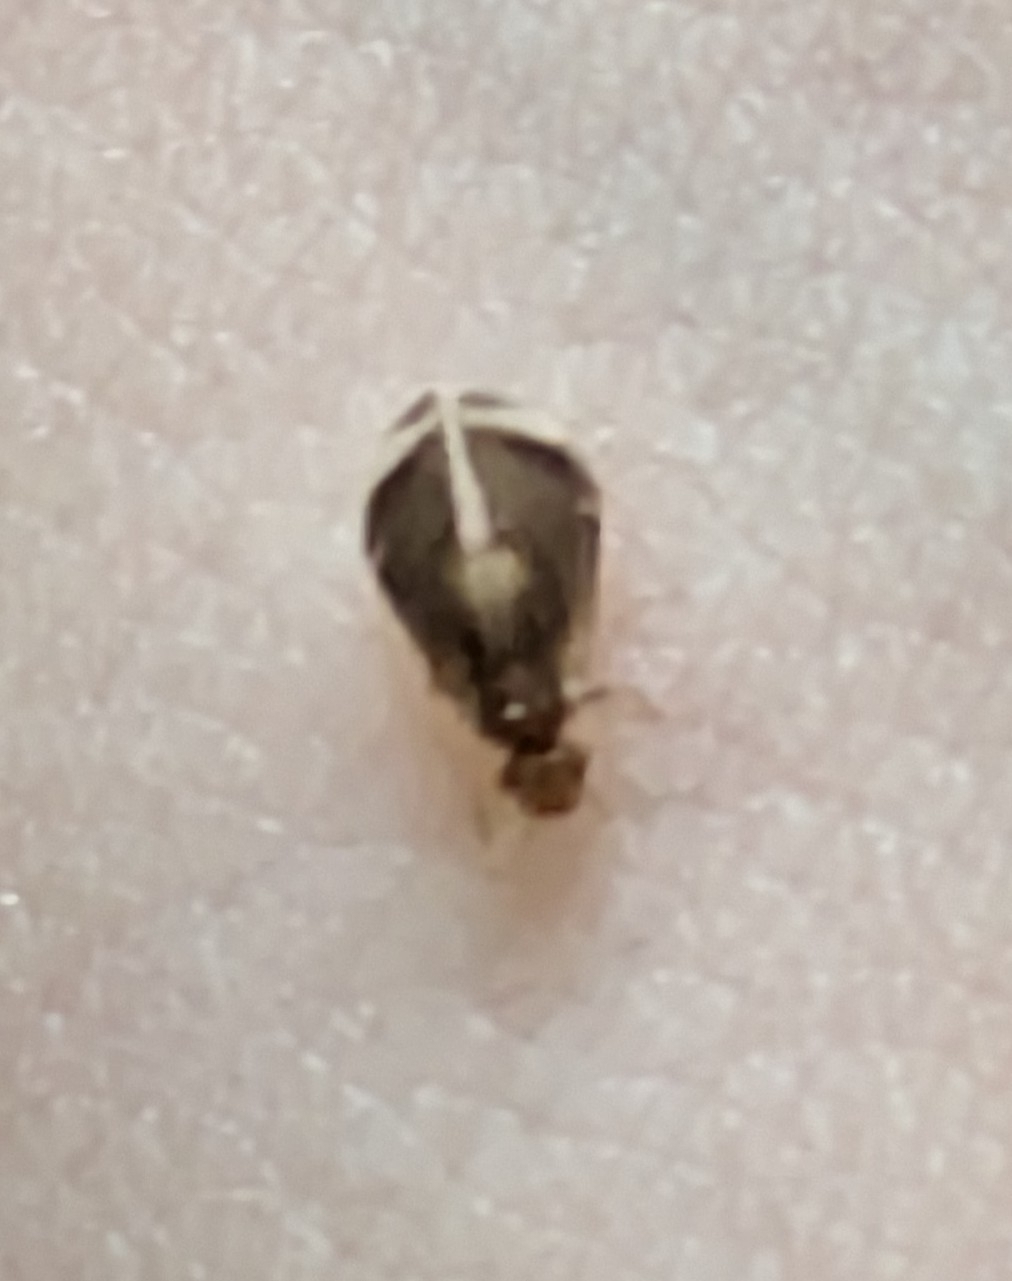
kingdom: Animalia
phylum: Arthropoda
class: Insecta
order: Psocodea
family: Amphipsocidae
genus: Polypsocus
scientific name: Polypsocus corruptus
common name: Corrupt barklouse
